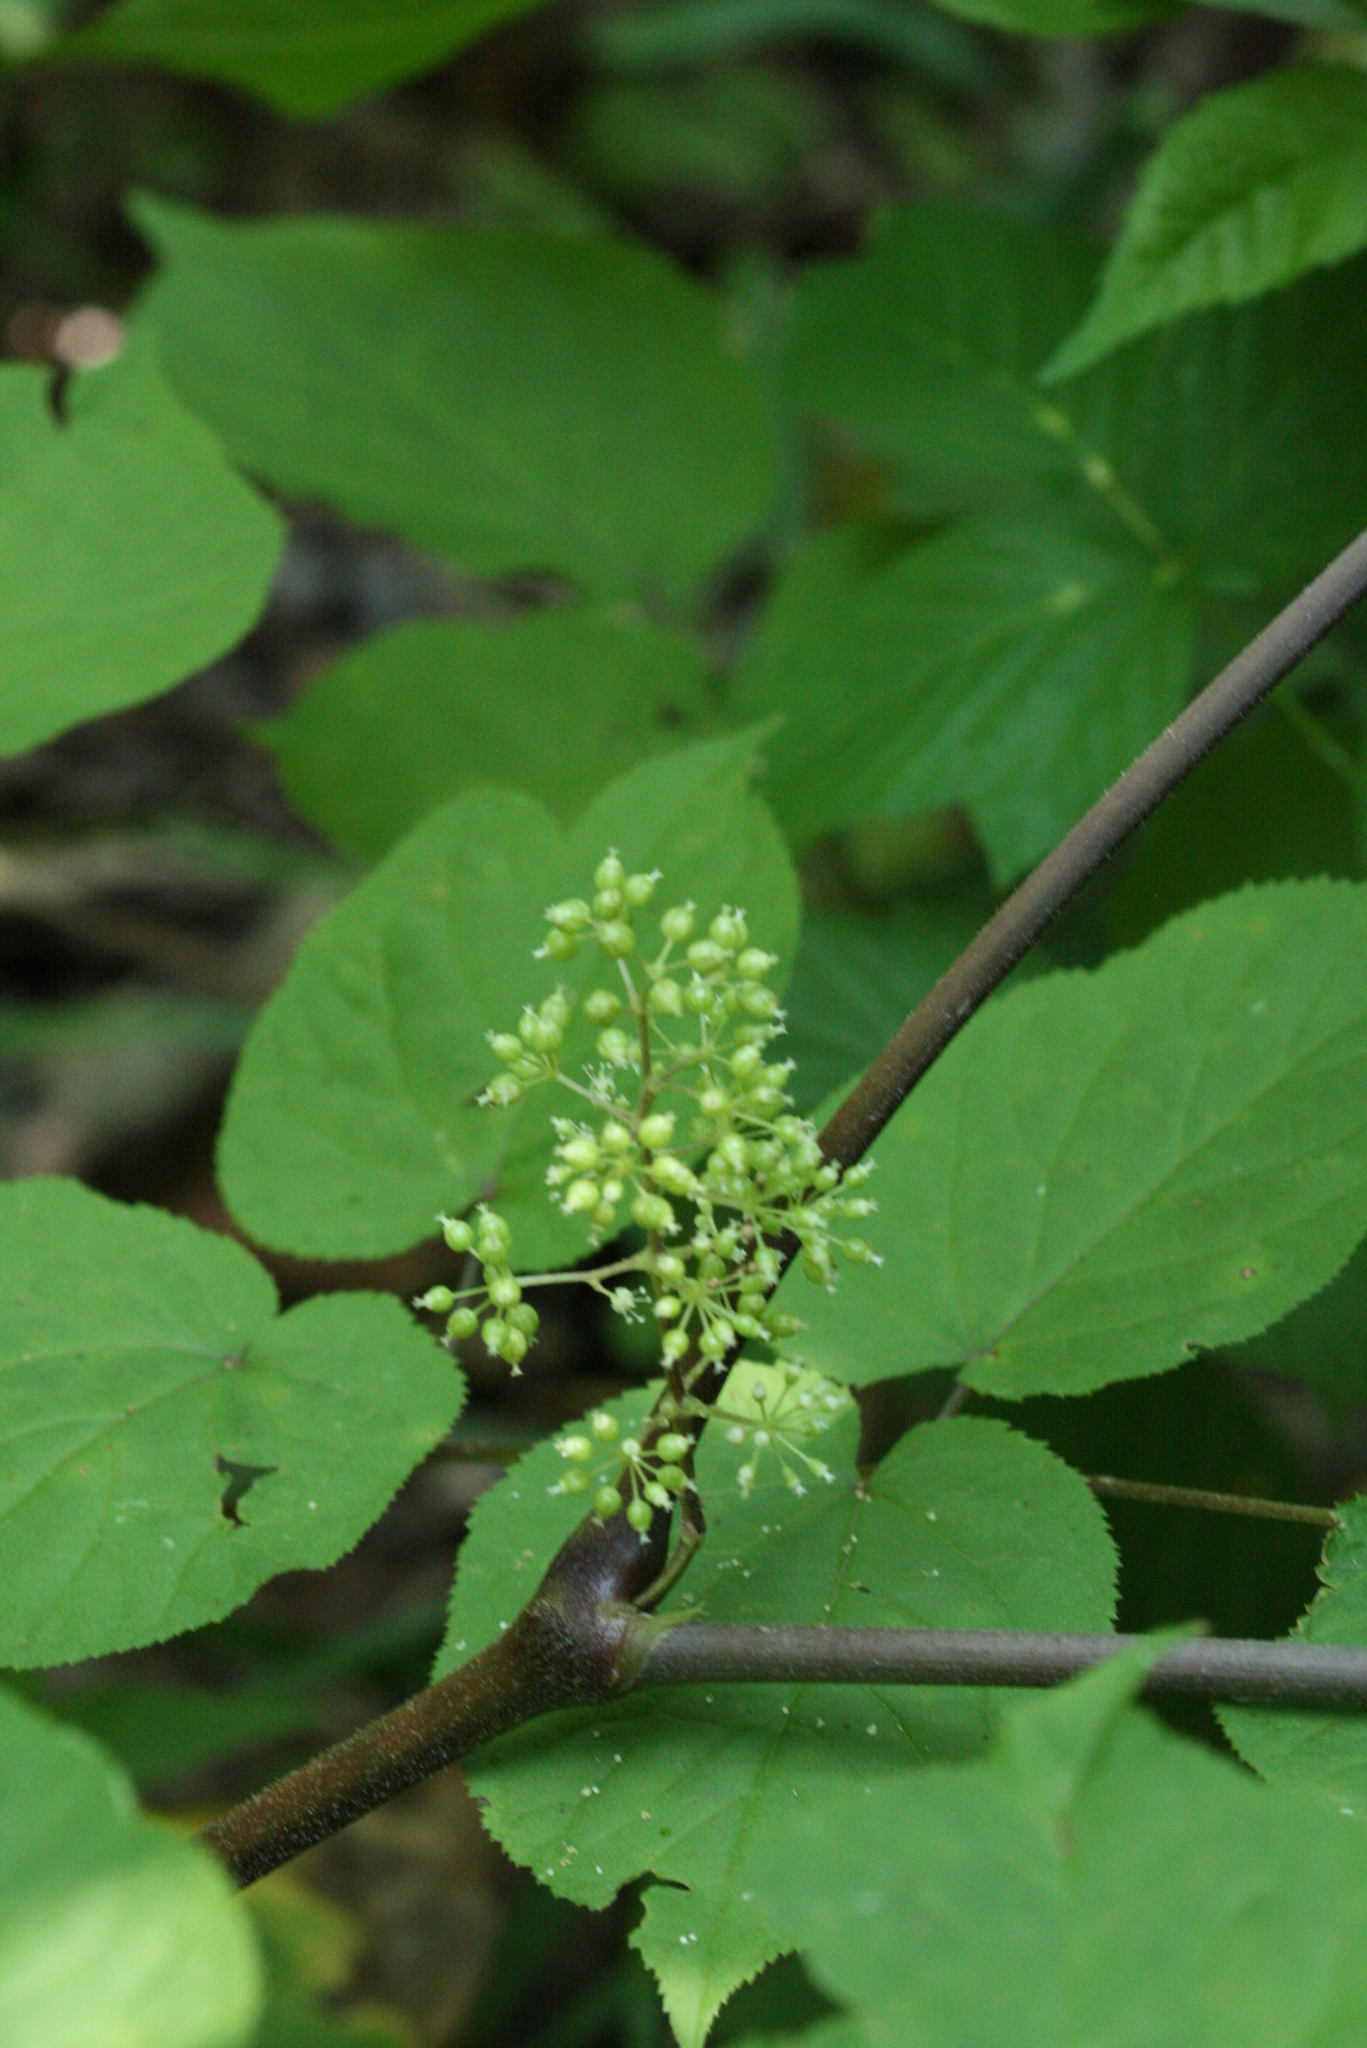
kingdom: Plantae
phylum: Tracheophyta
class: Magnoliopsida
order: Apiales
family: Araliaceae
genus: Aralia
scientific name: Aralia racemosa
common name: American-spikenard
